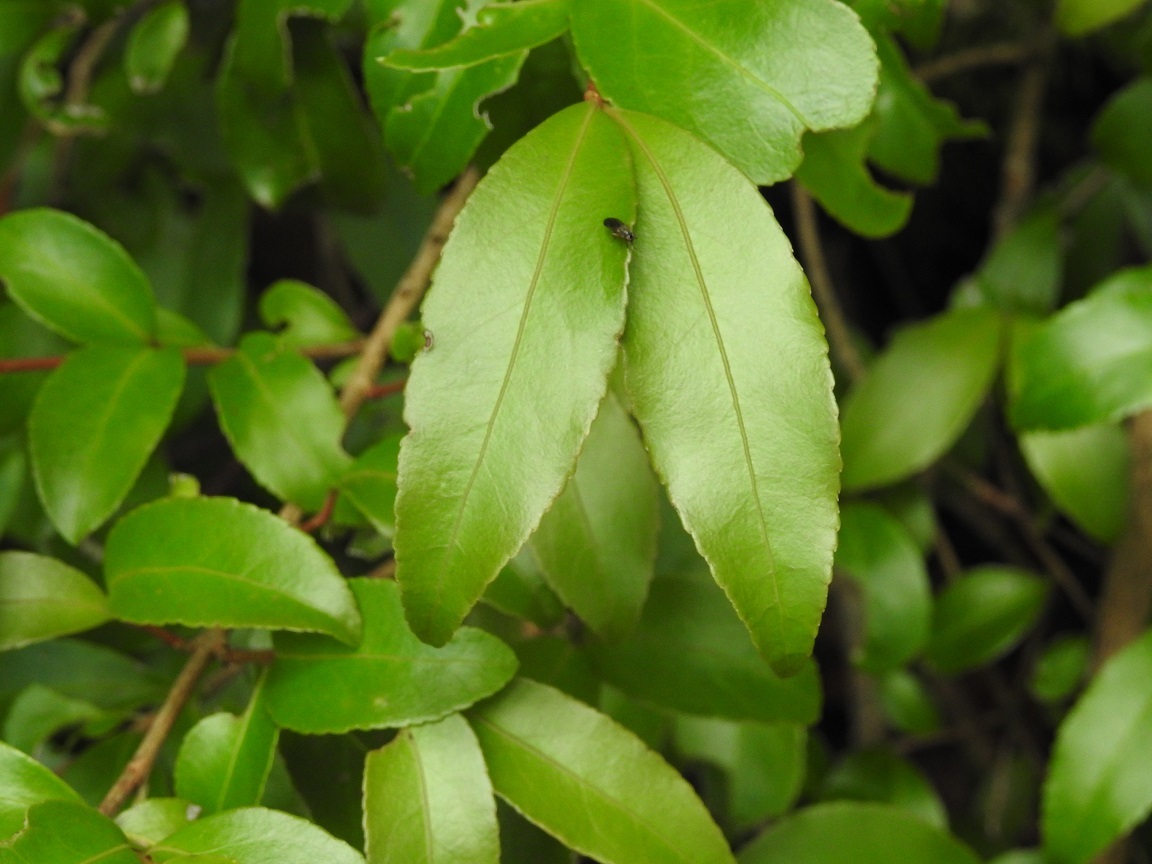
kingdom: Plantae
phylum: Tracheophyta
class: Magnoliopsida
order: Celastrales
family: Celastraceae
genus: Gyminda
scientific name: Gyminda tonduzii
